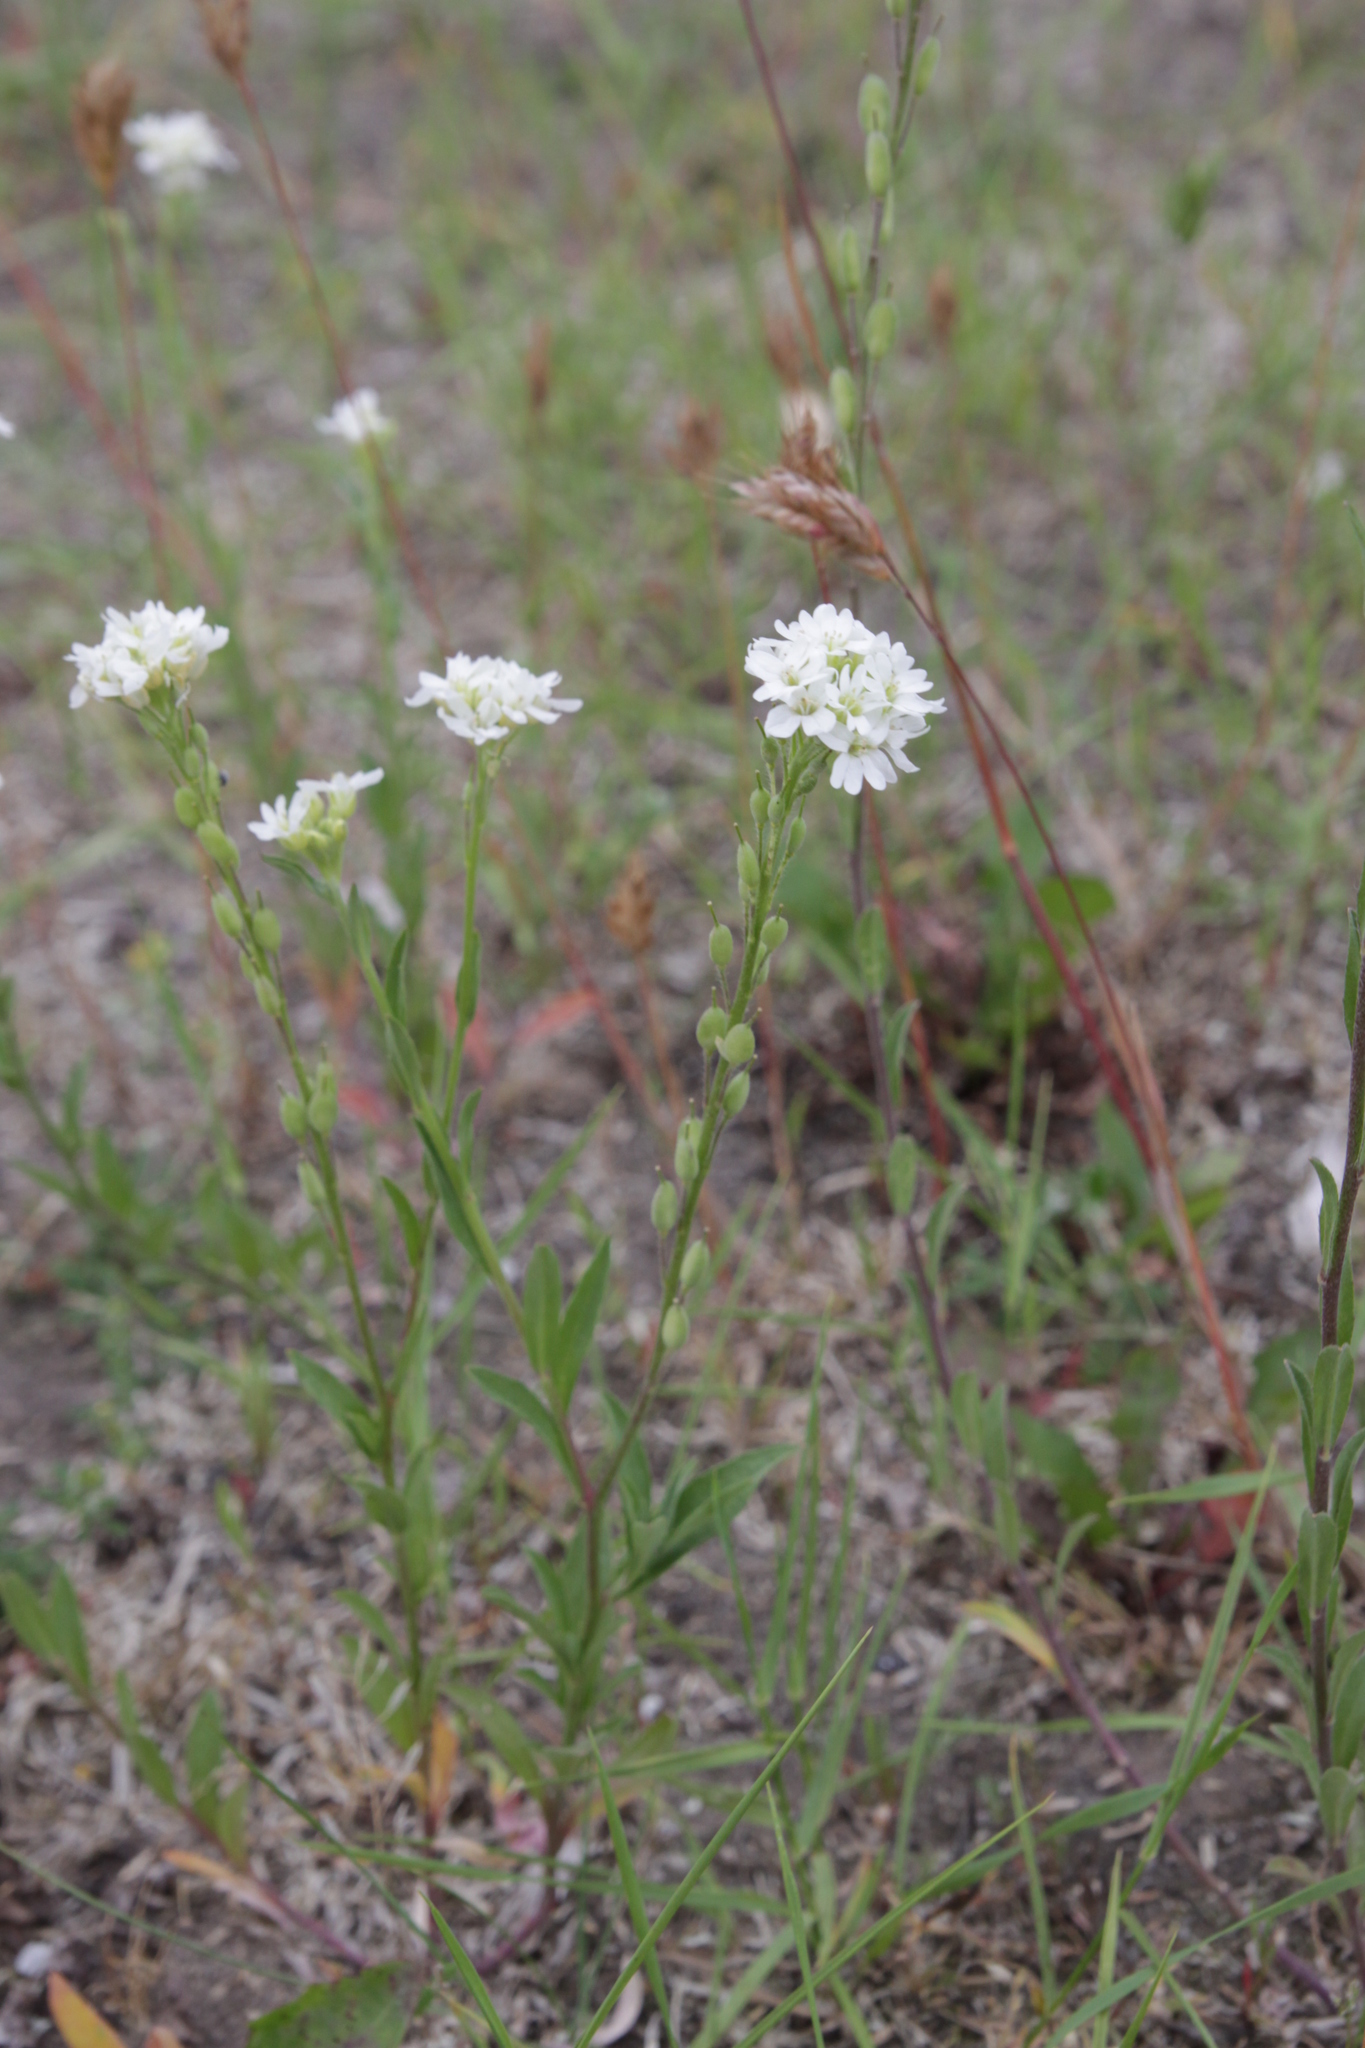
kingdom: Plantae
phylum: Tracheophyta
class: Magnoliopsida
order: Brassicales
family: Brassicaceae
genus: Berteroa
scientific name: Berteroa incana
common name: Hoary alison
